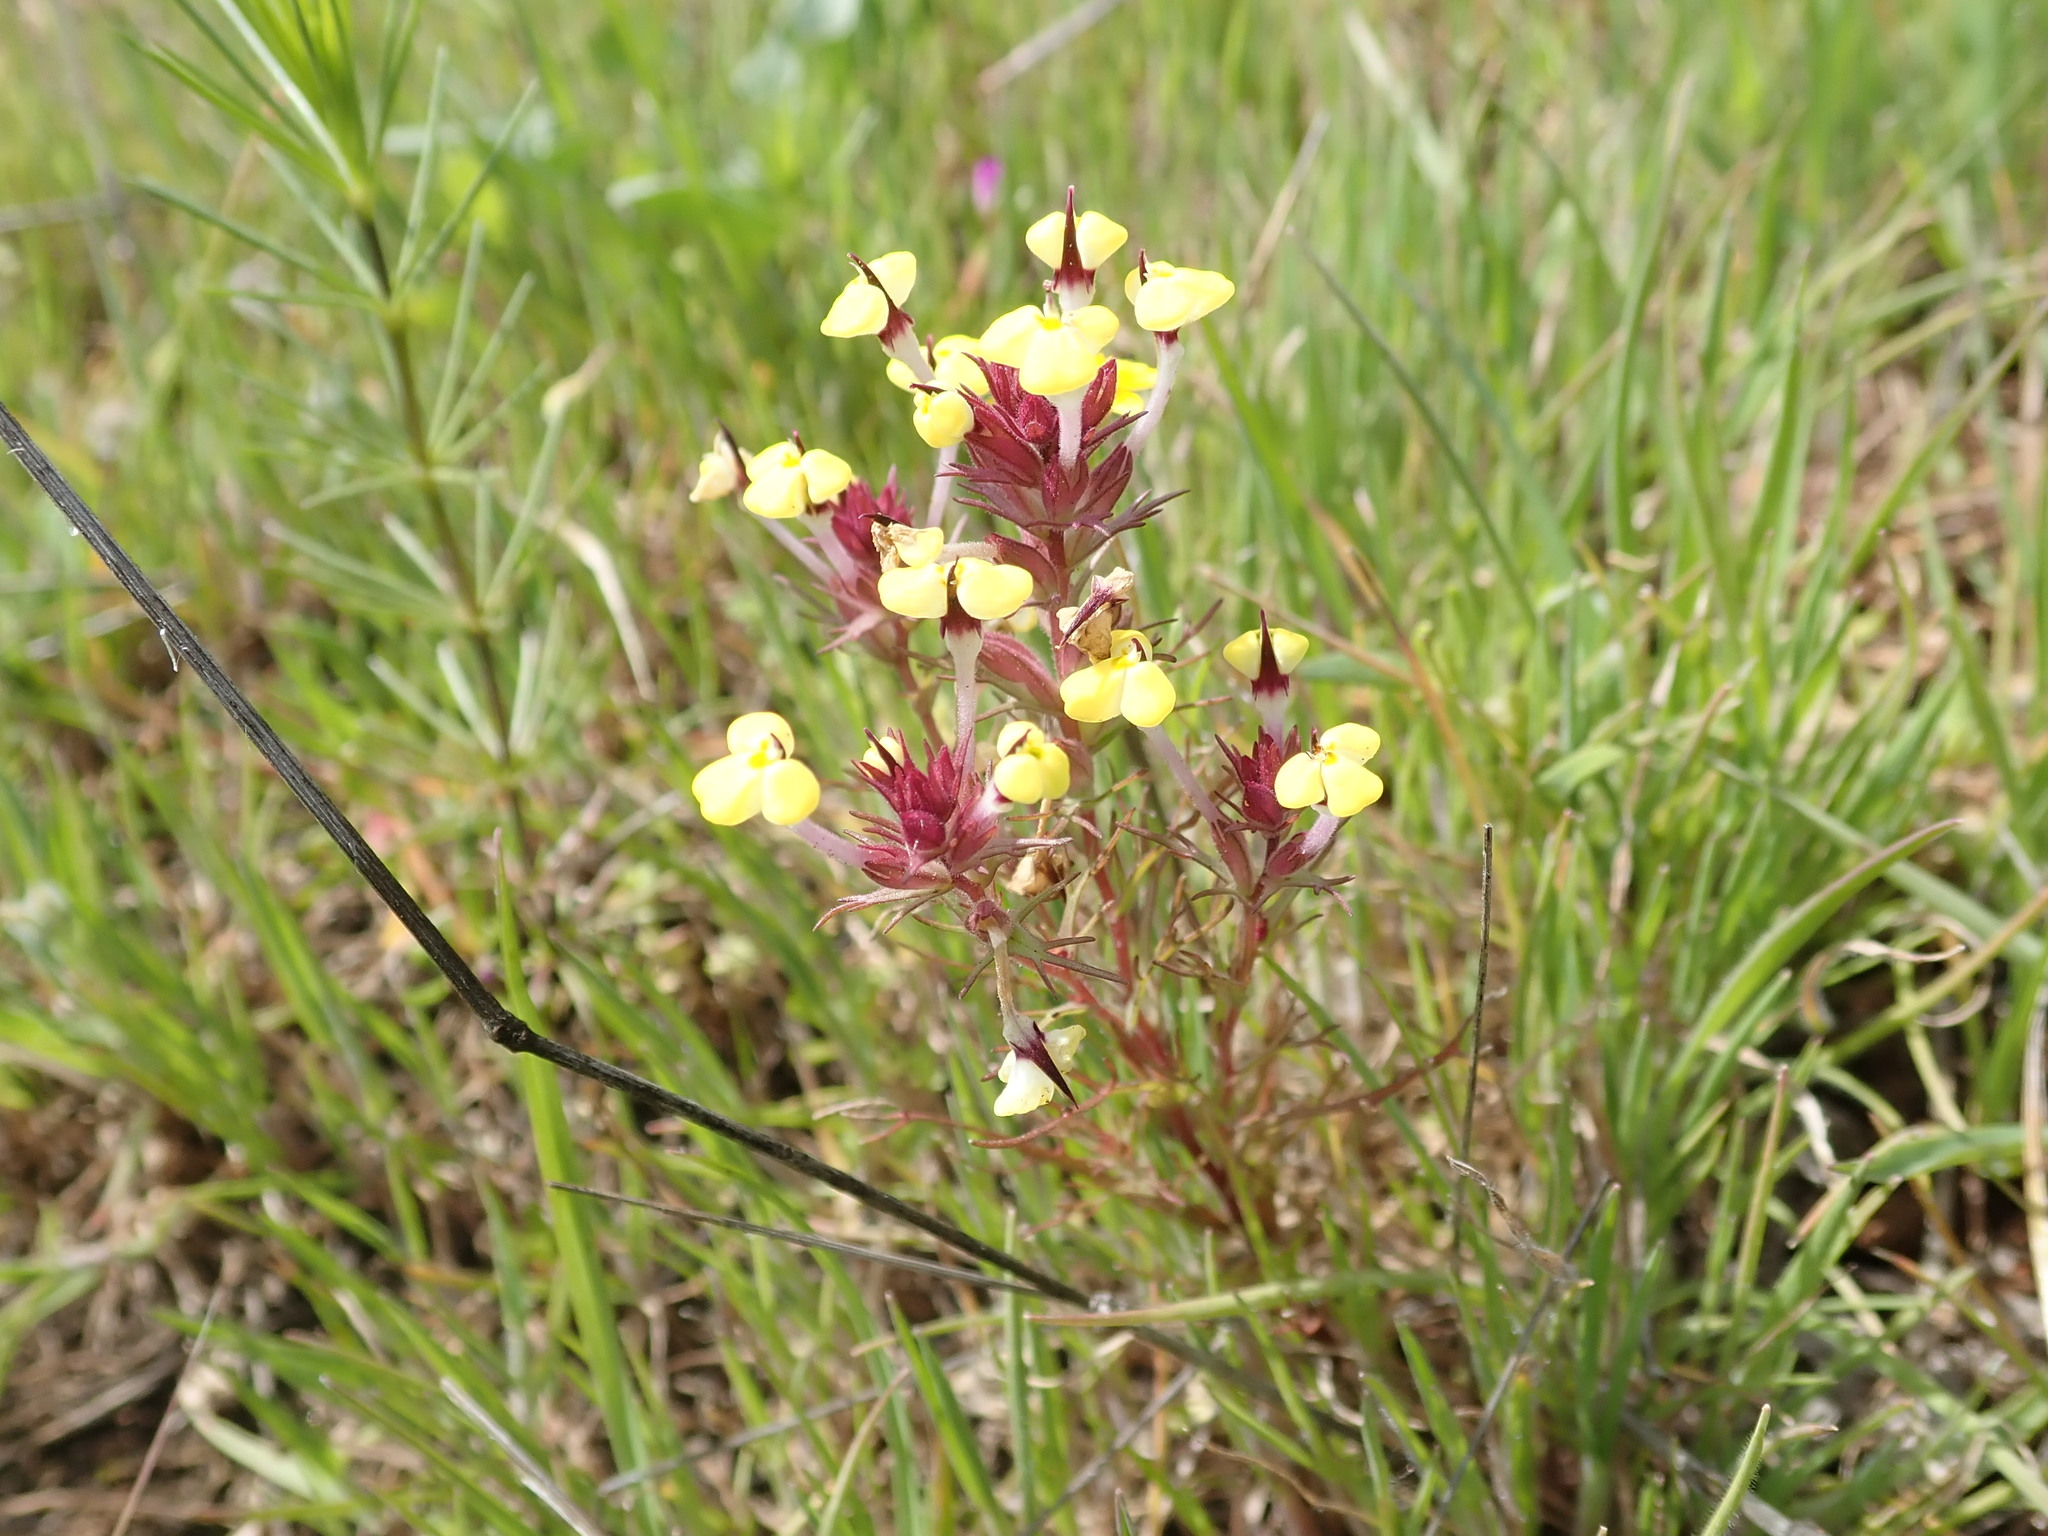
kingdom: Plantae
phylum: Tracheophyta
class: Magnoliopsida
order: Lamiales
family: Orobanchaceae
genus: Triphysaria
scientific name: Triphysaria eriantha
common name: Johnny-tuck
